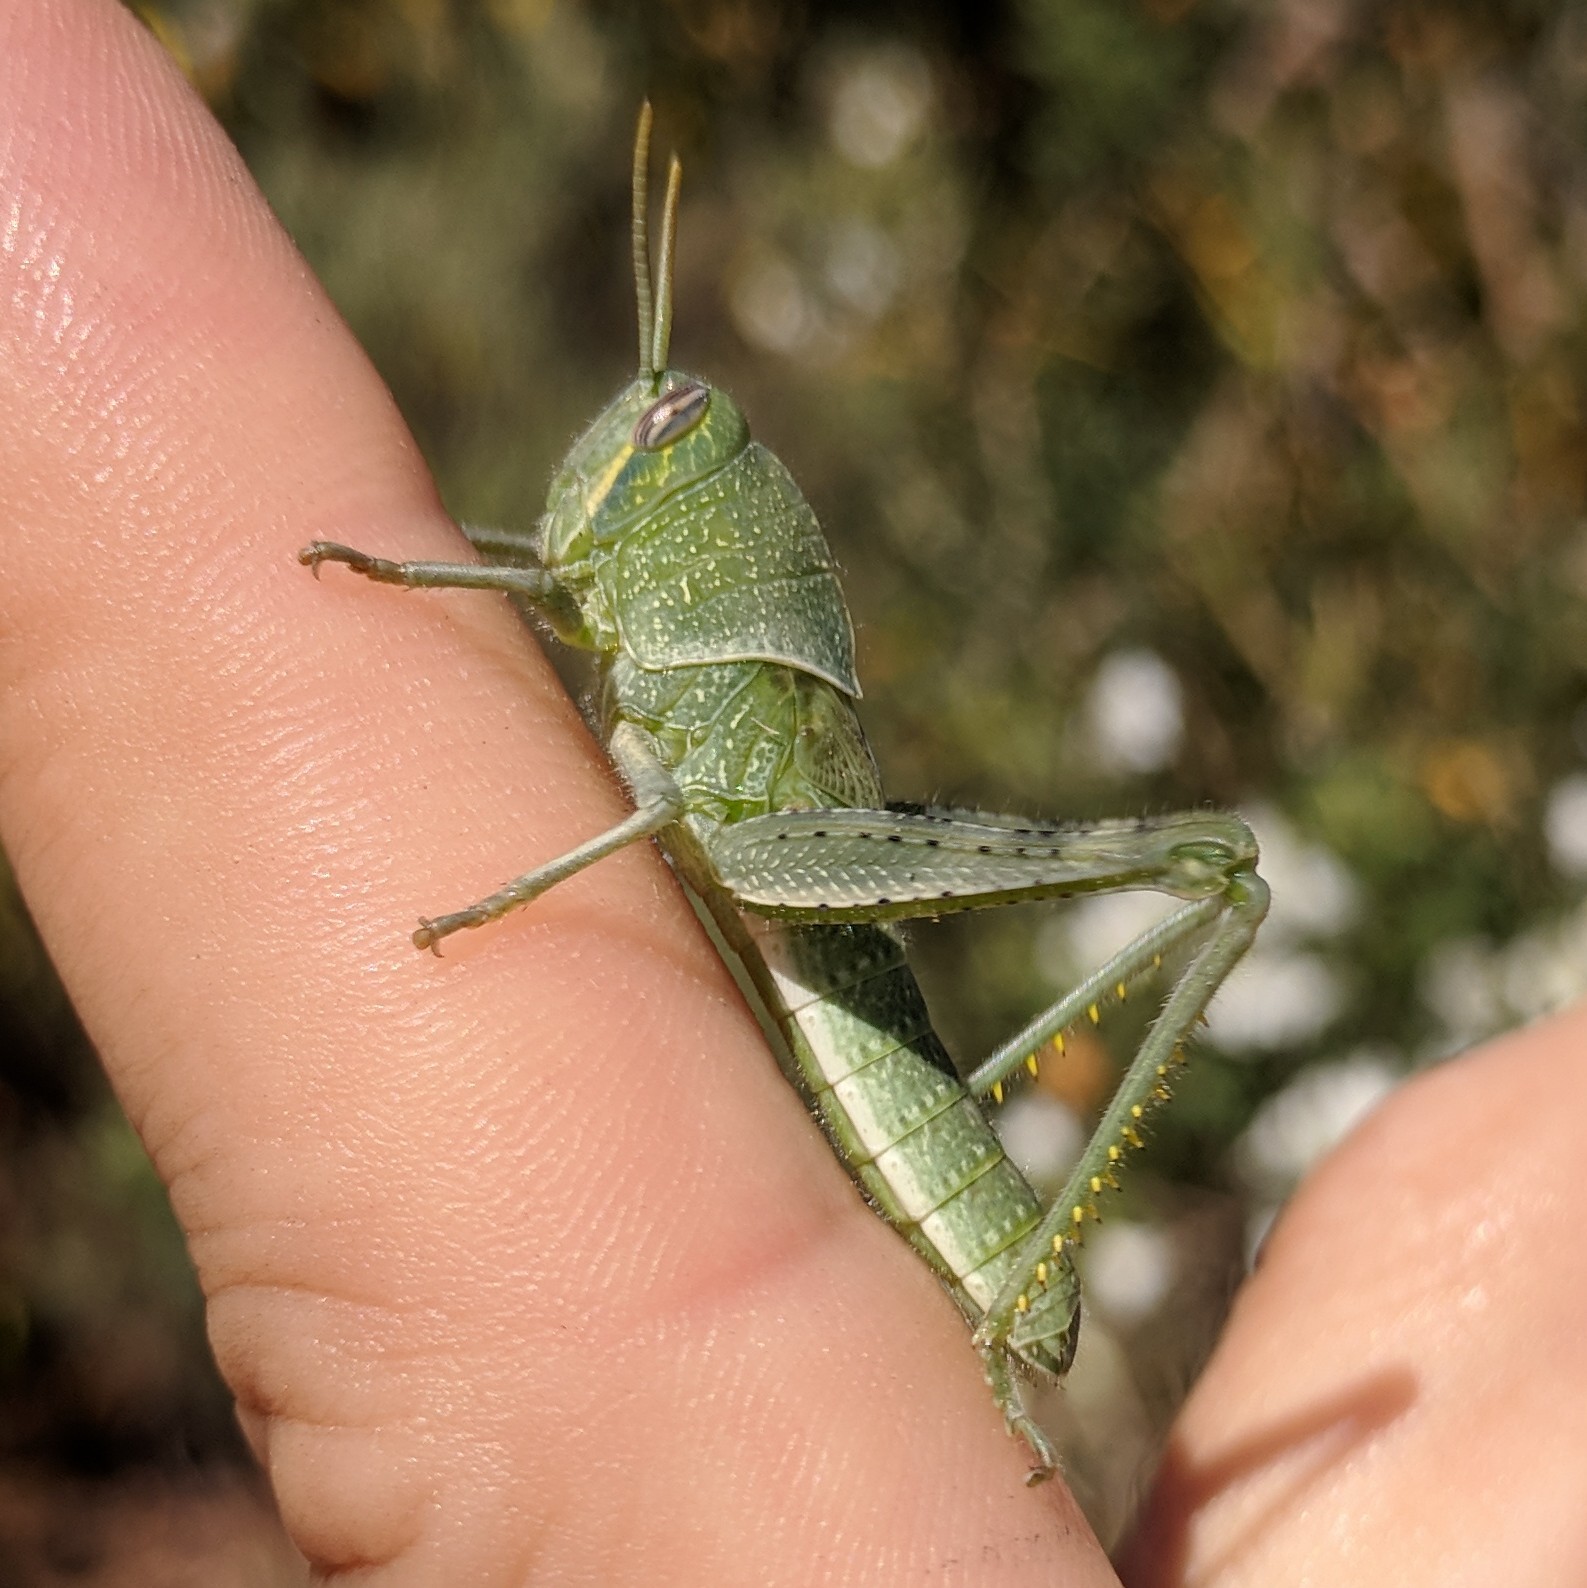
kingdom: Animalia
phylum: Arthropoda
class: Insecta
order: Orthoptera
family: Acrididae
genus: Schistocerca
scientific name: Schistocerca nitens
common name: Vagrant grasshopper
